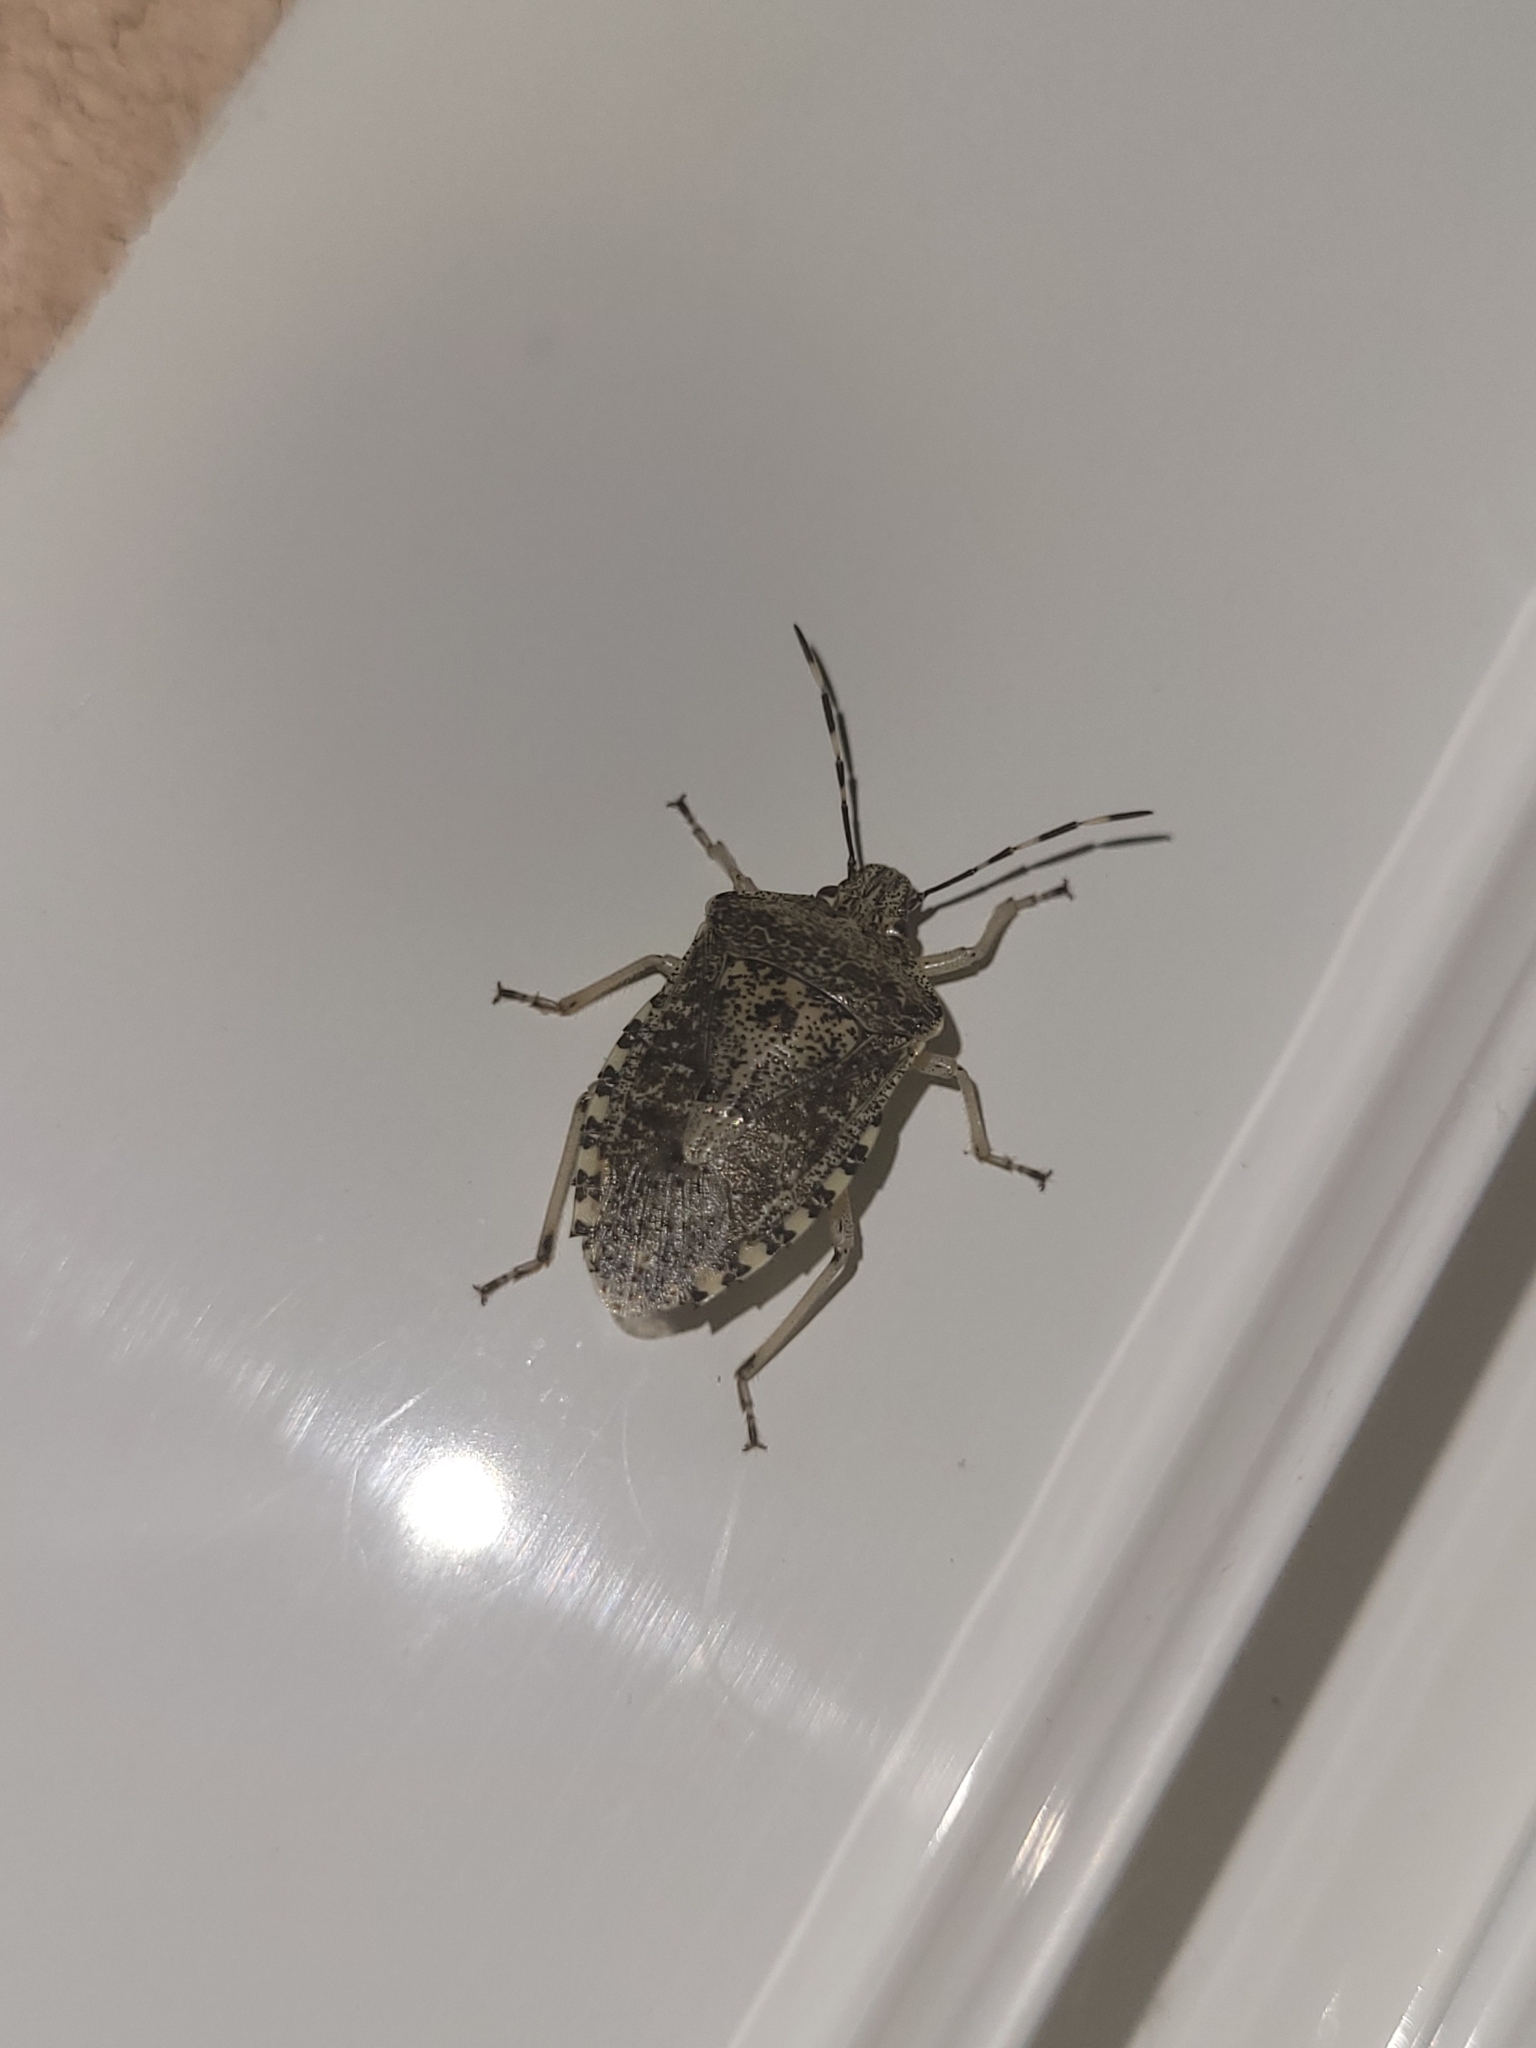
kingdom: Animalia
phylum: Arthropoda
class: Insecta
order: Hemiptera
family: Pentatomidae
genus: Rhaphigaster
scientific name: Rhaphigaster nebulosa
